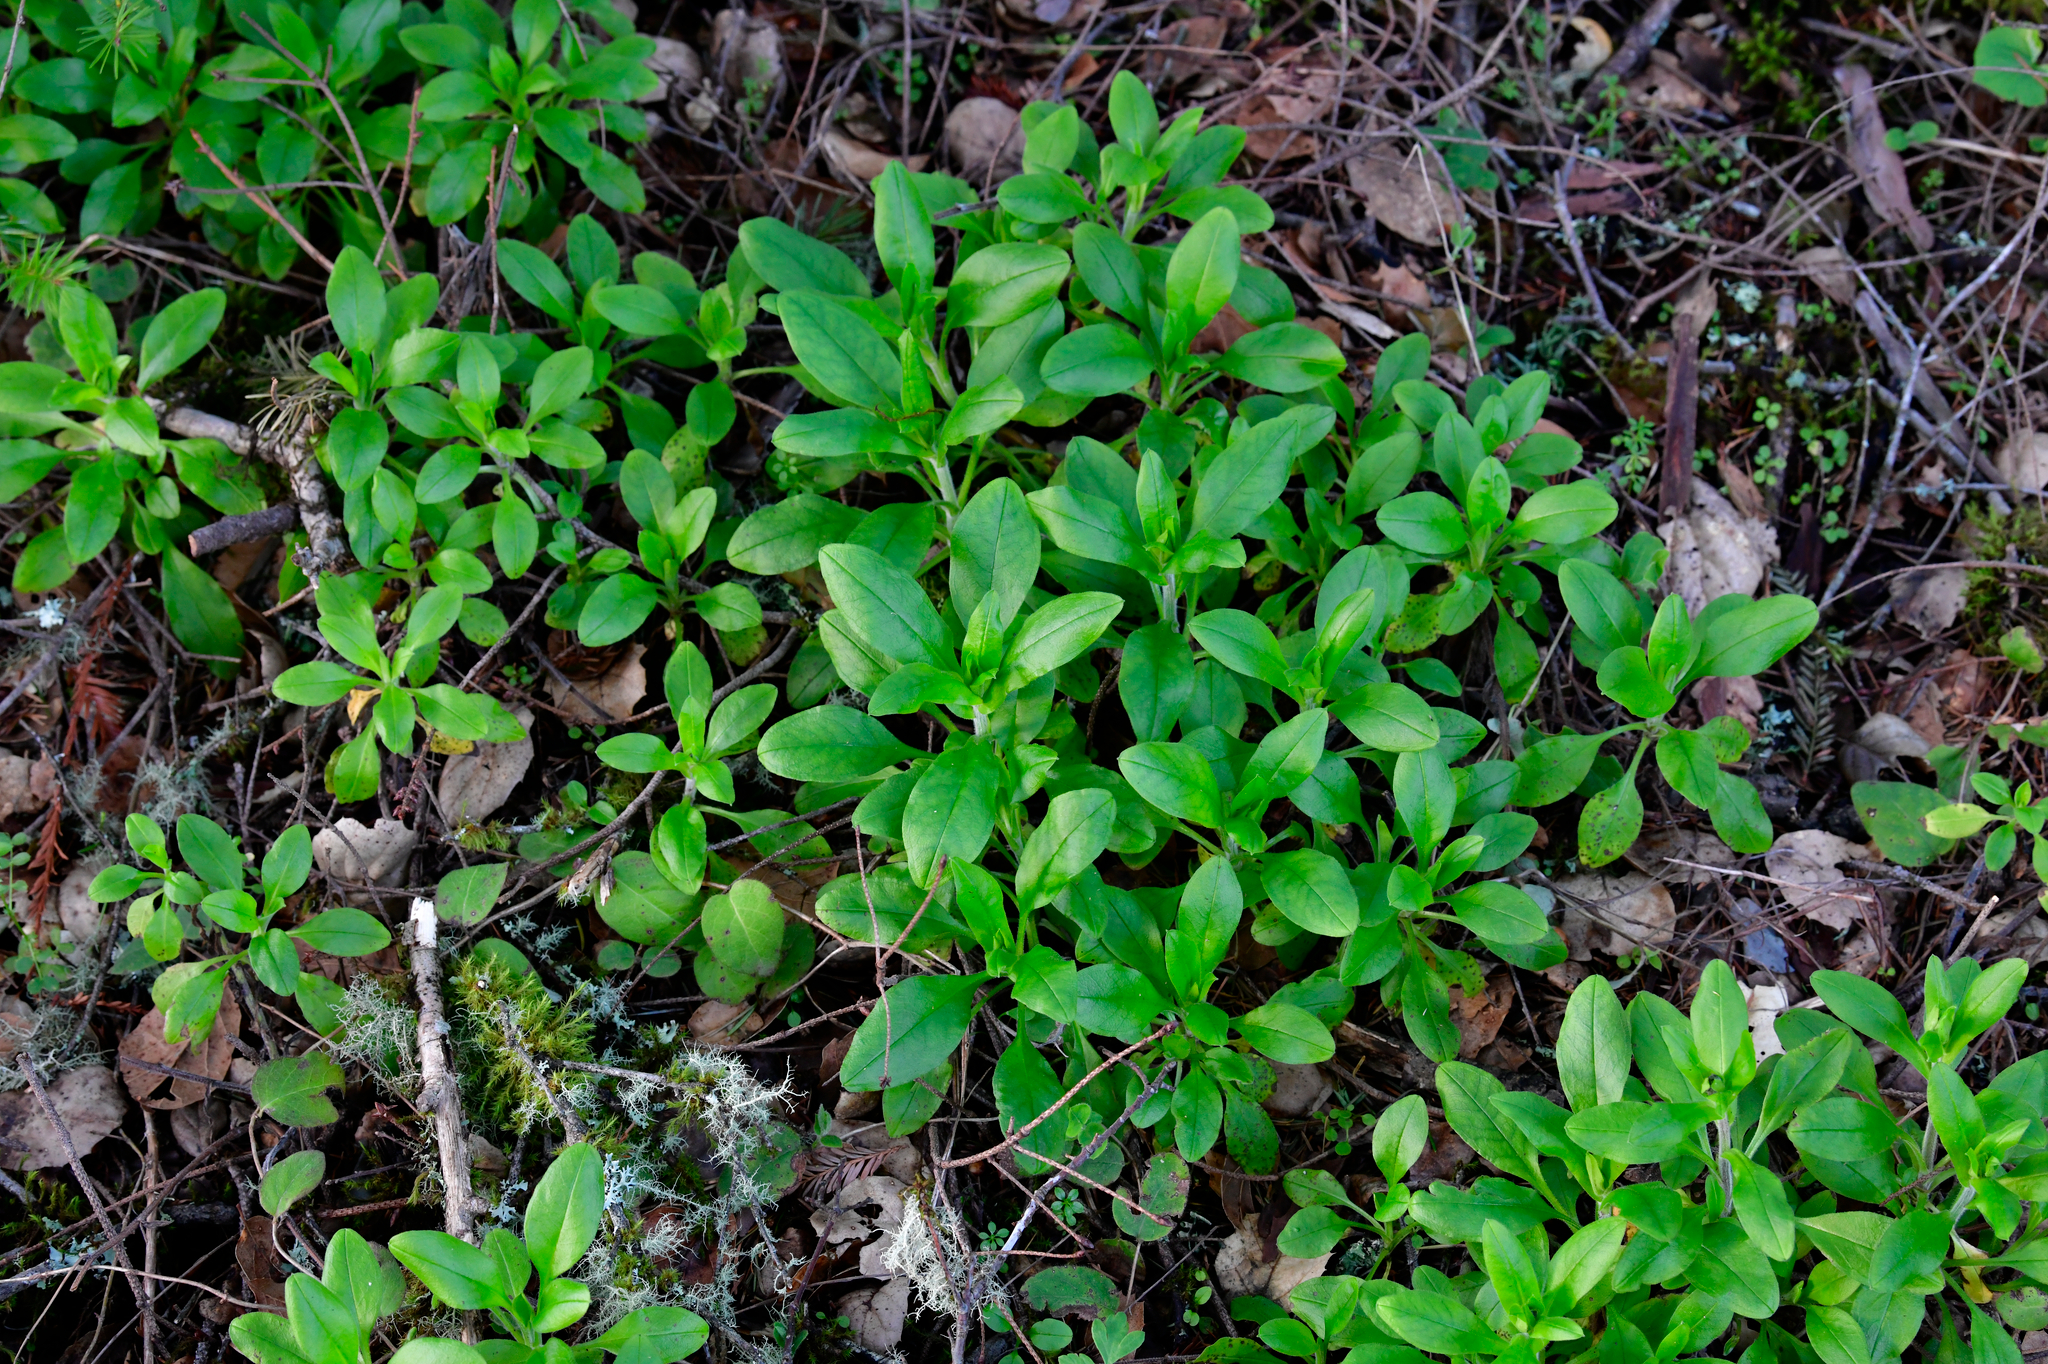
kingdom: Plantae
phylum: Tracheophyta
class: Magnoliopsida
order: Boraginales
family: Boraginaceae
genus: Myosotis
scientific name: Myosotis latifolia
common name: Broadleaf forget-me-not
